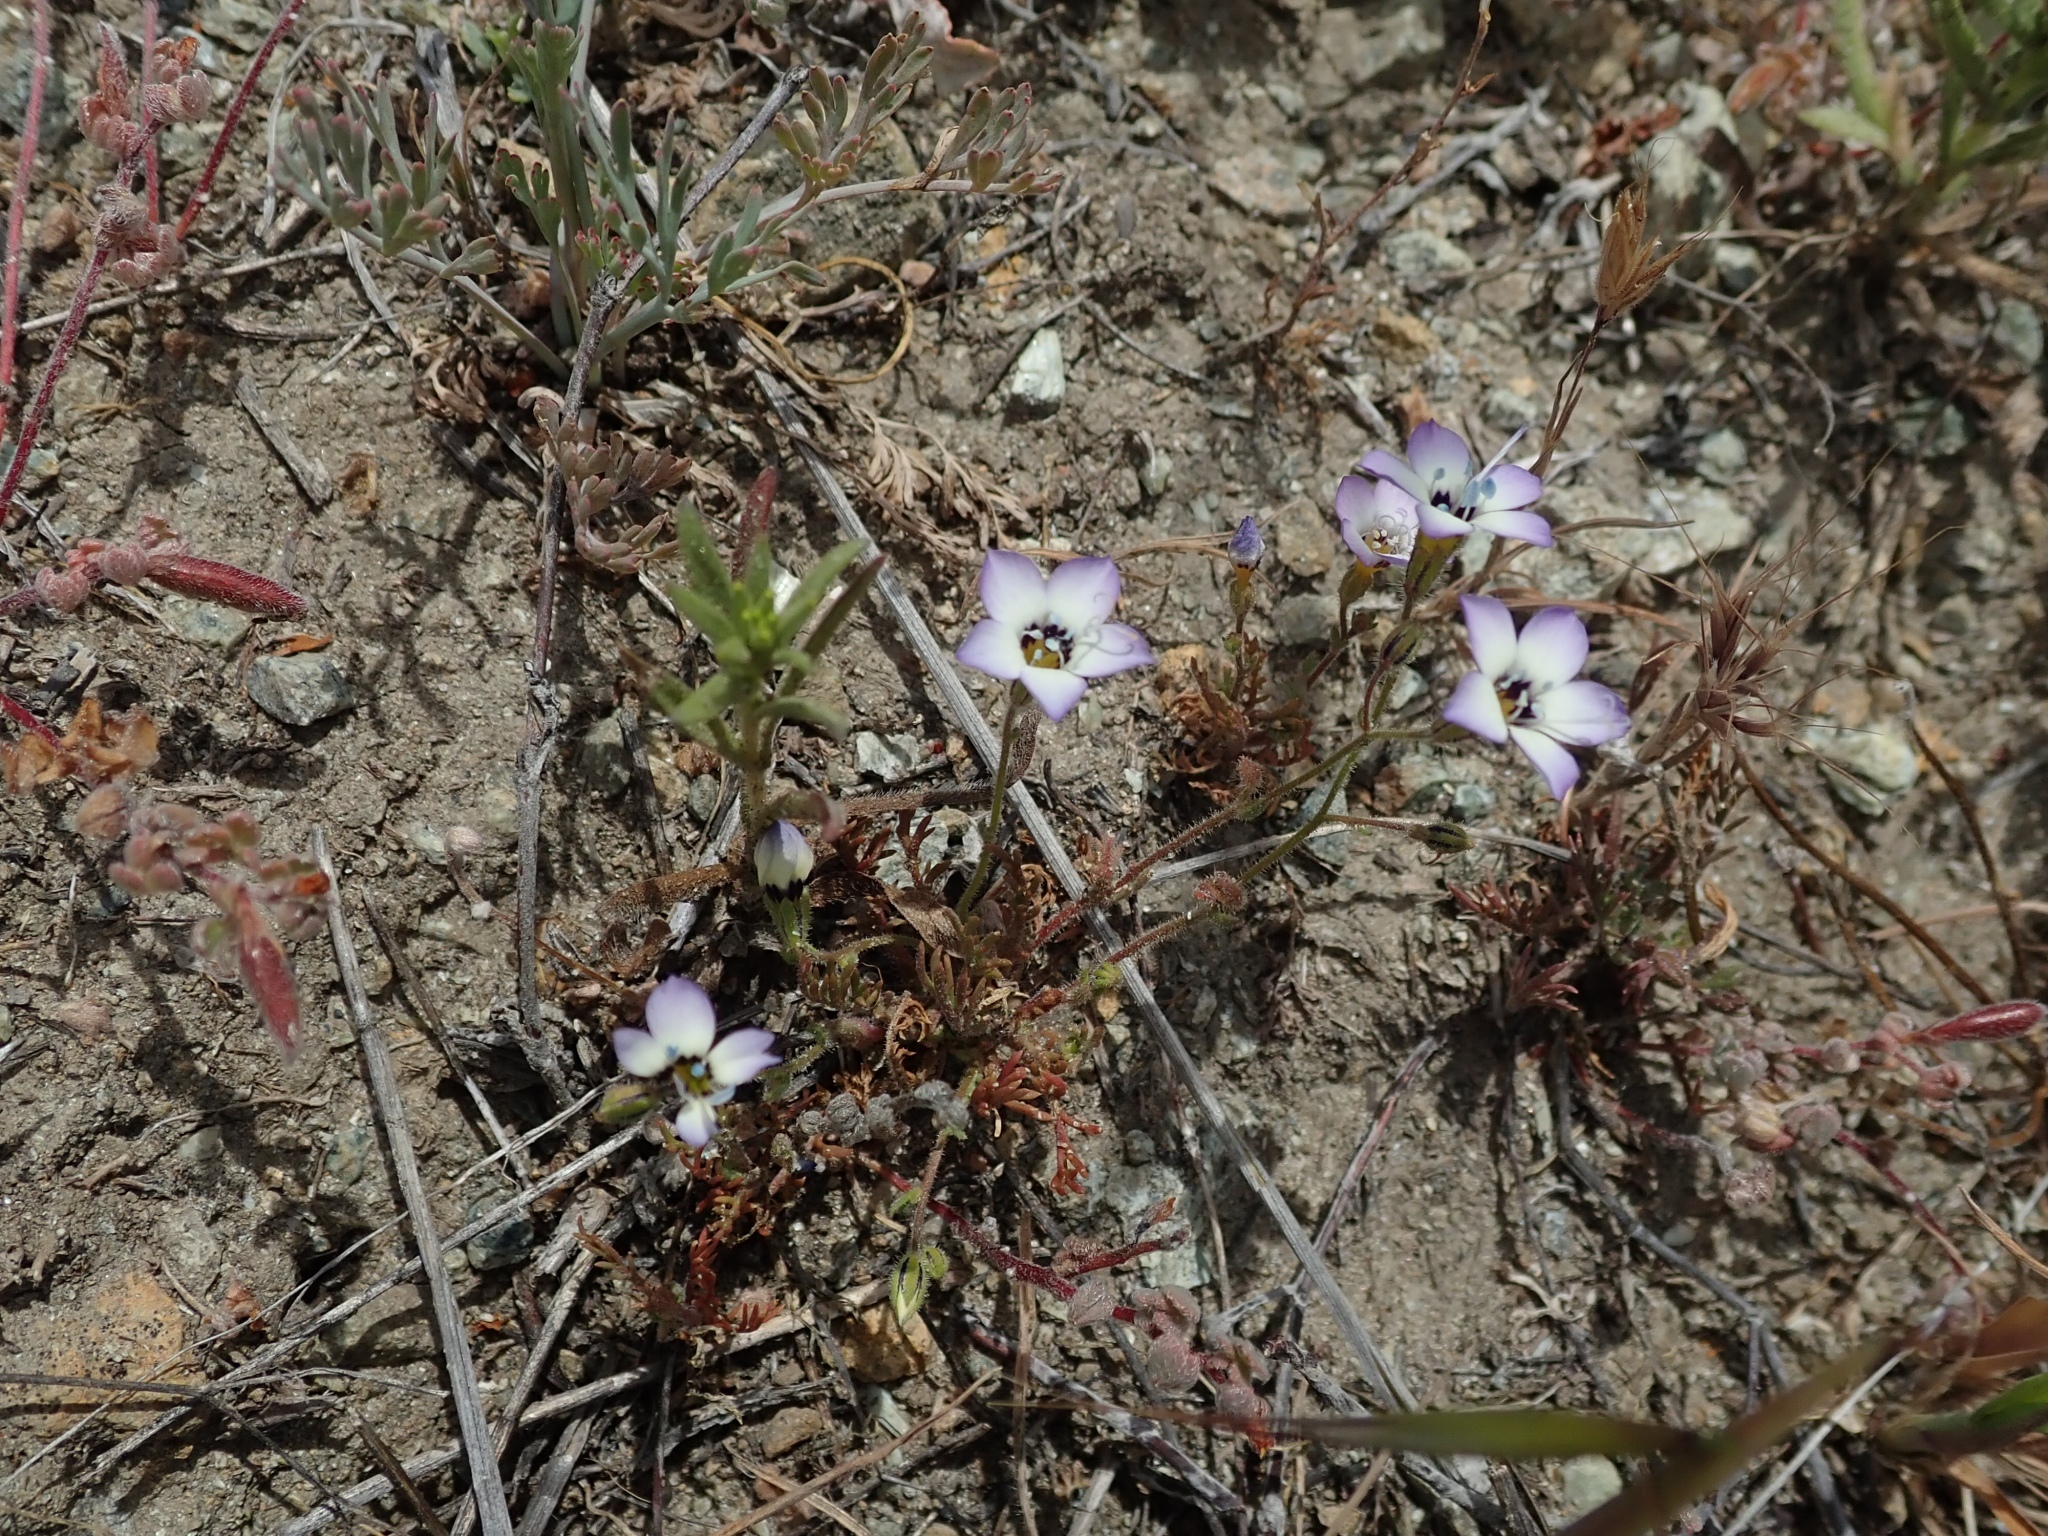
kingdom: Plantae
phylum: Tracheophyta
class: Magnoliopsida
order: Ericales
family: Polemoniaceae
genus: Gilia
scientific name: Gilia tricolor
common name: Bird's-eyes
